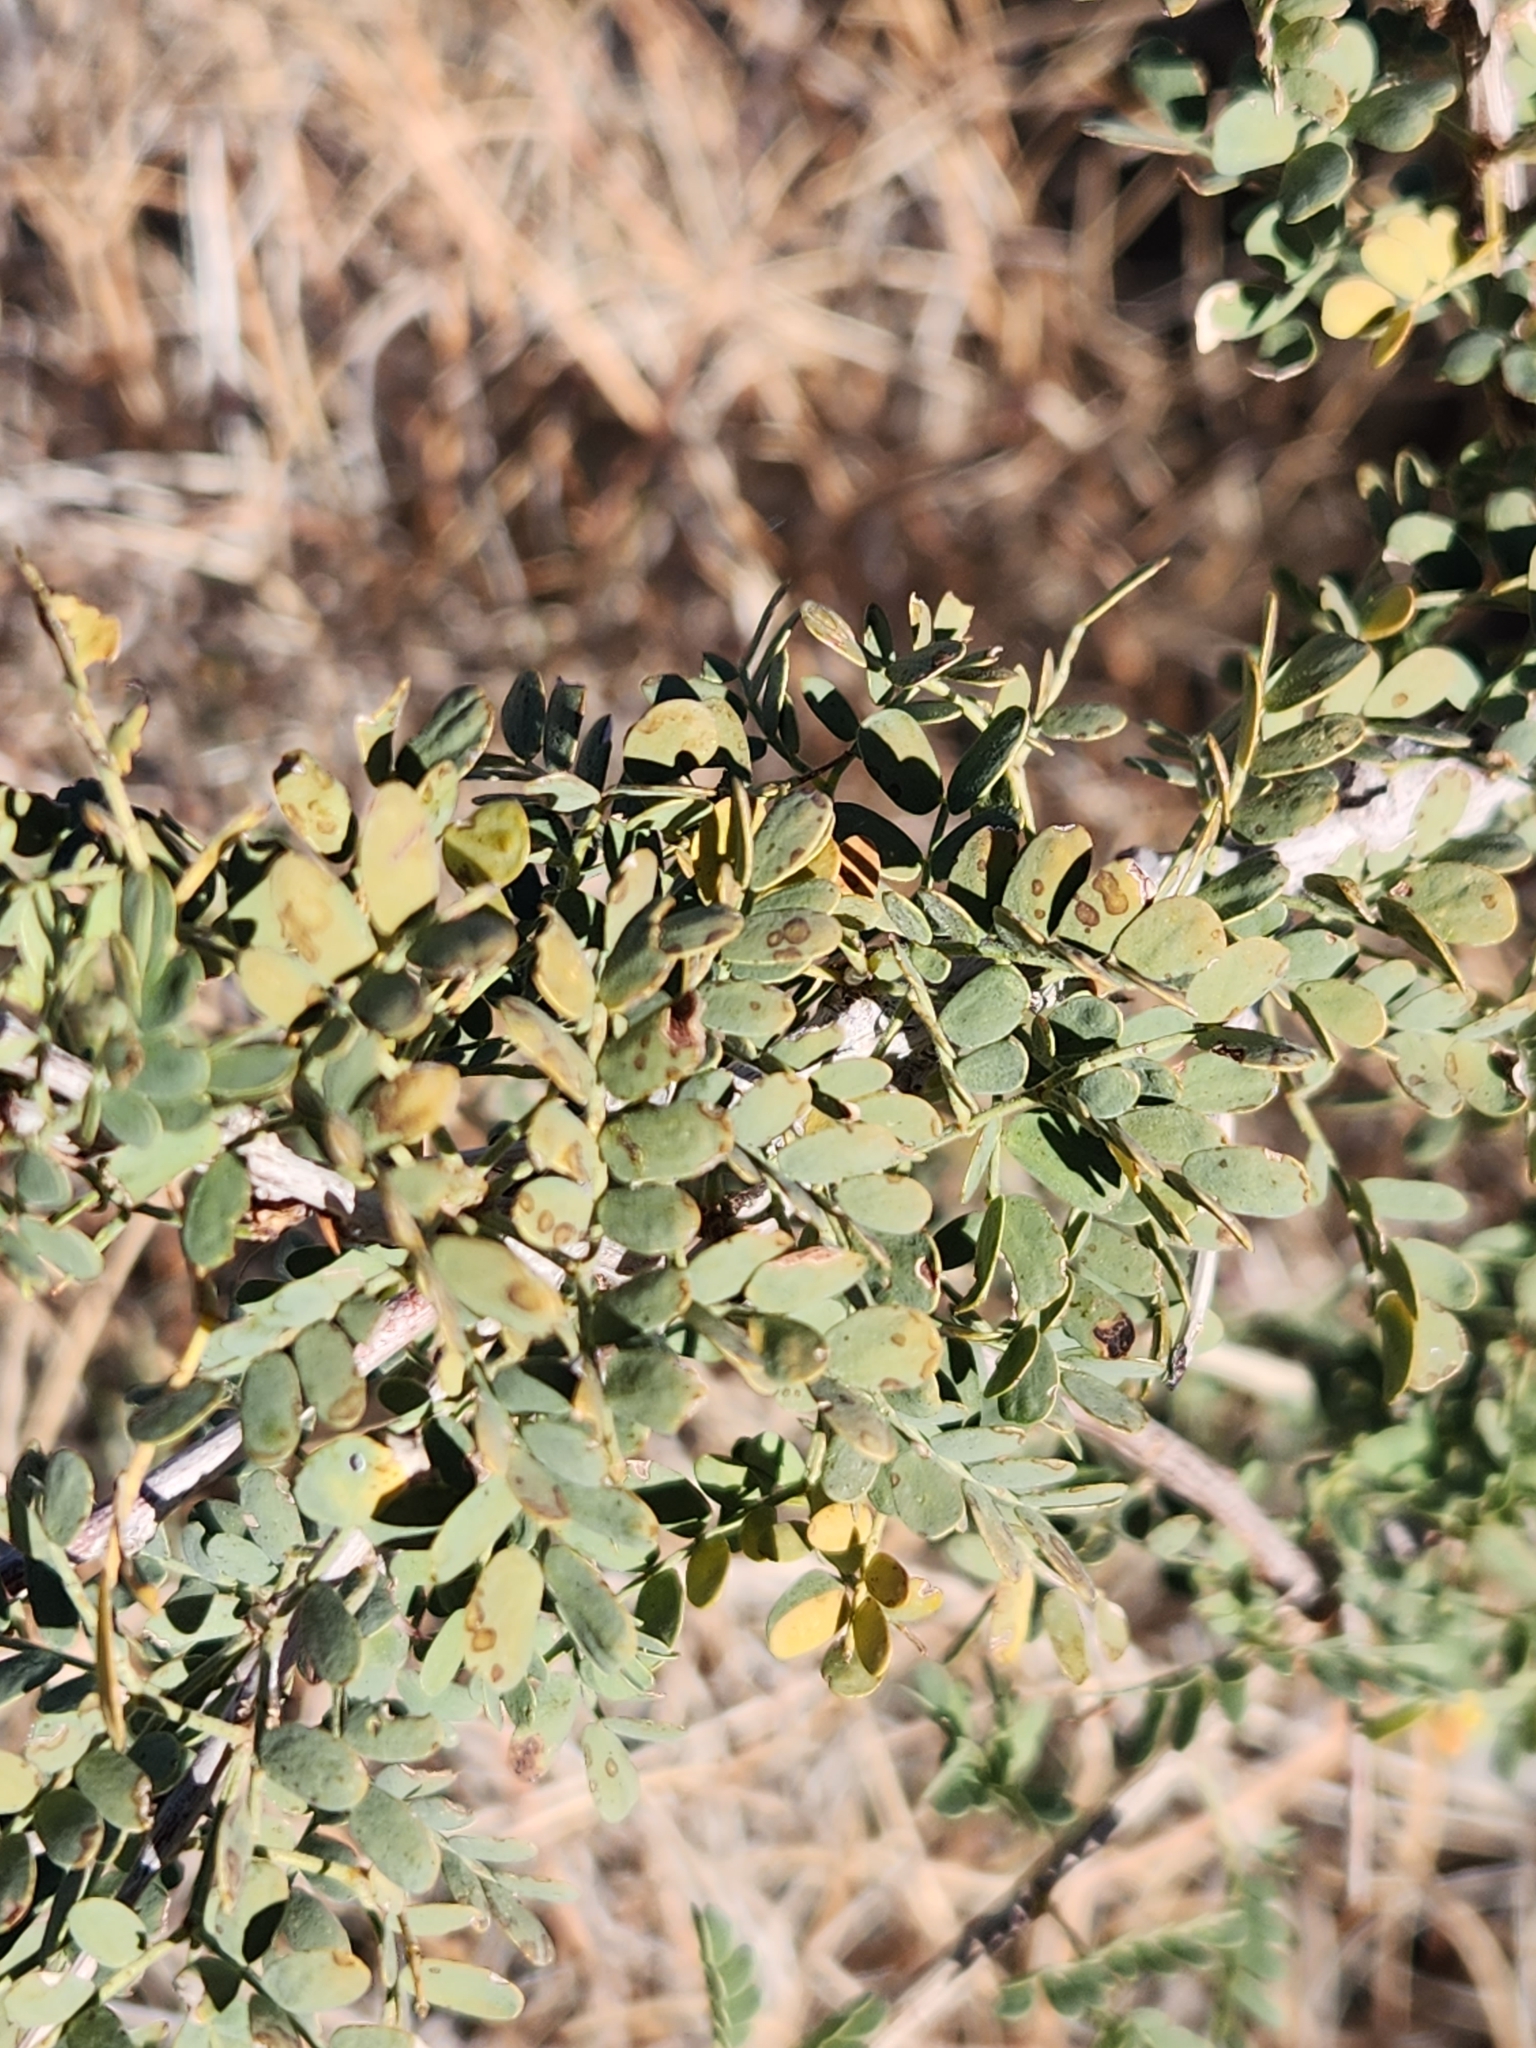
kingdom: Plantae
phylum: Tracheophyta
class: Magnoliopsida
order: Fabales
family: Fabaceae
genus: Senegalia
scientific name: Senegalia greggii
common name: Texas-mimosa
